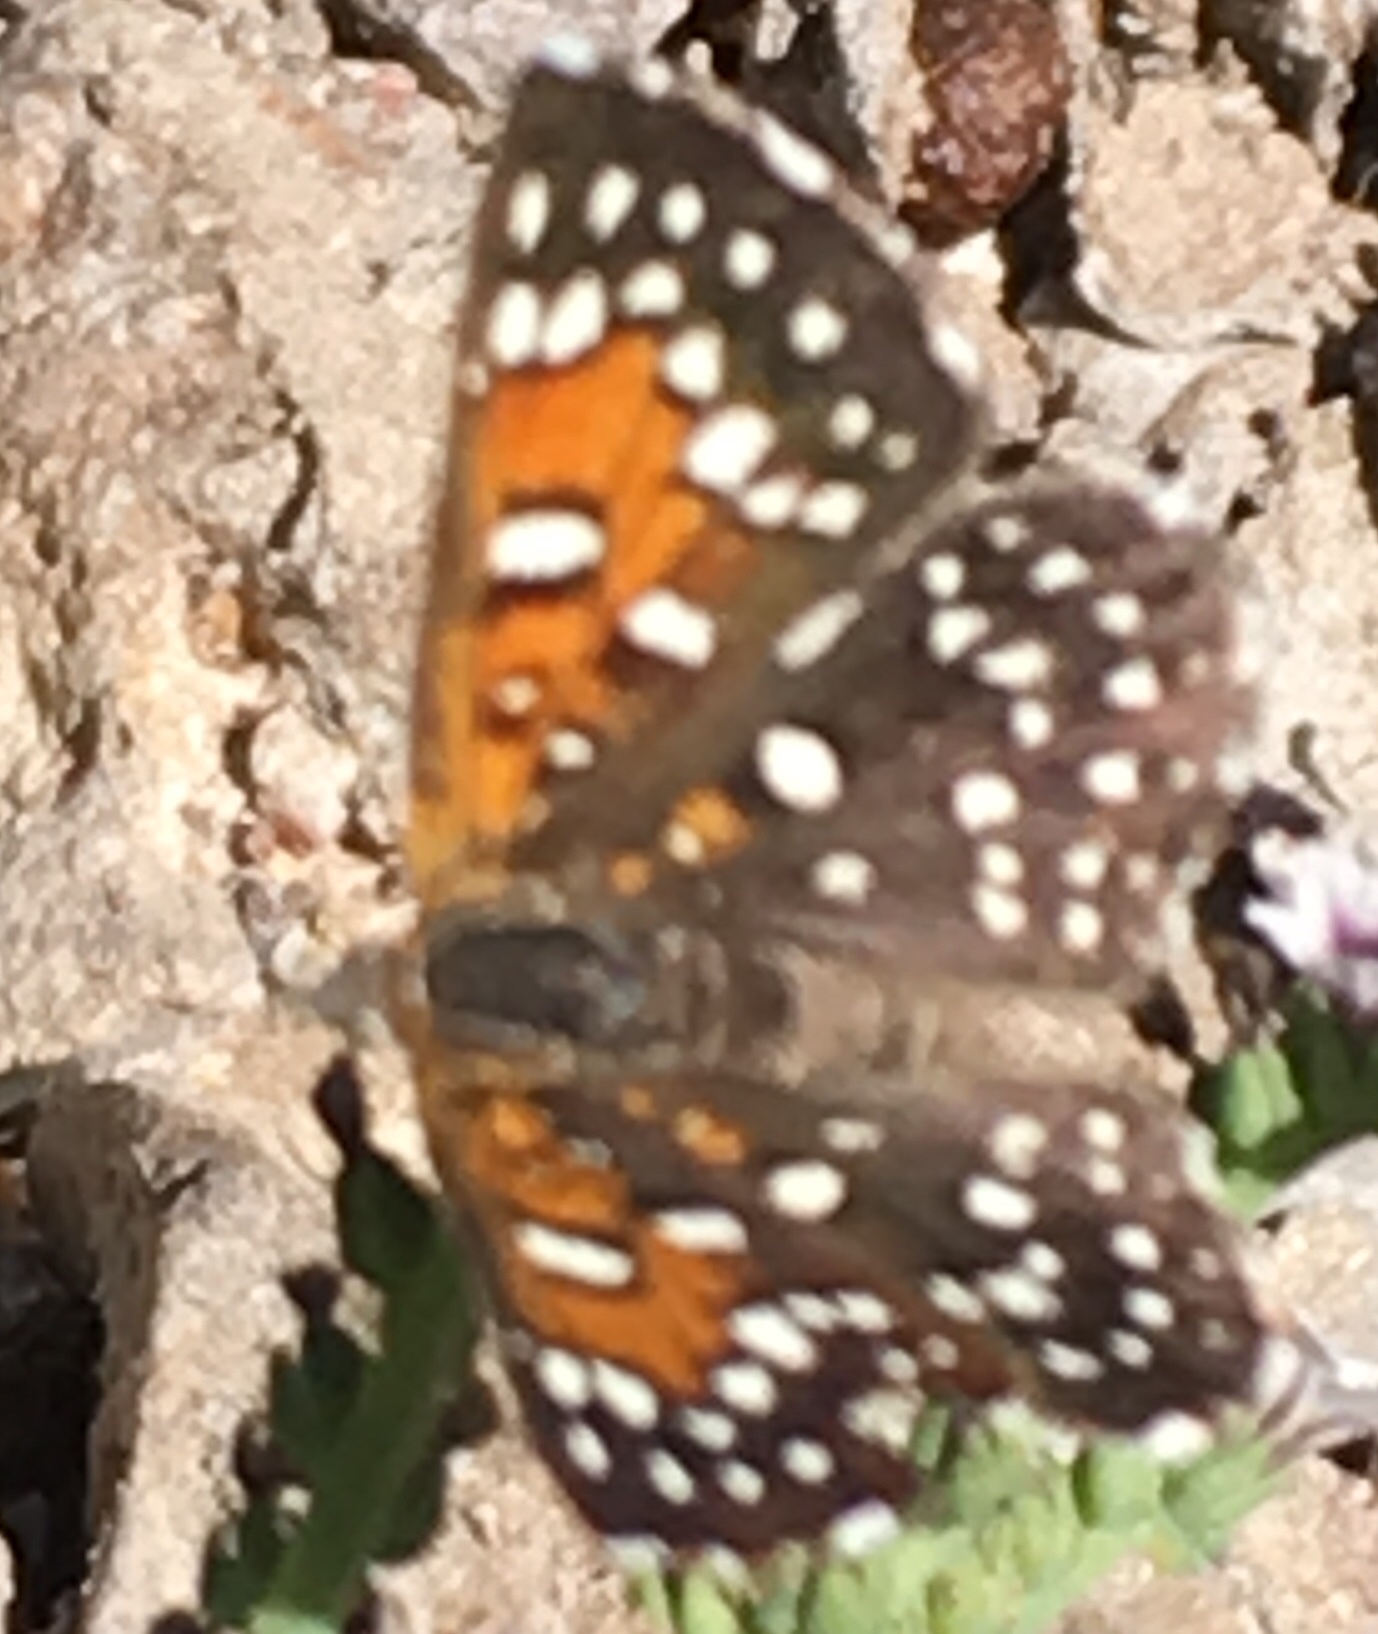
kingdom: Animalia
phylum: Arthropoda
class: Insecta
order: Lepidoptera
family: Riodinidae
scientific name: Riodinidae
